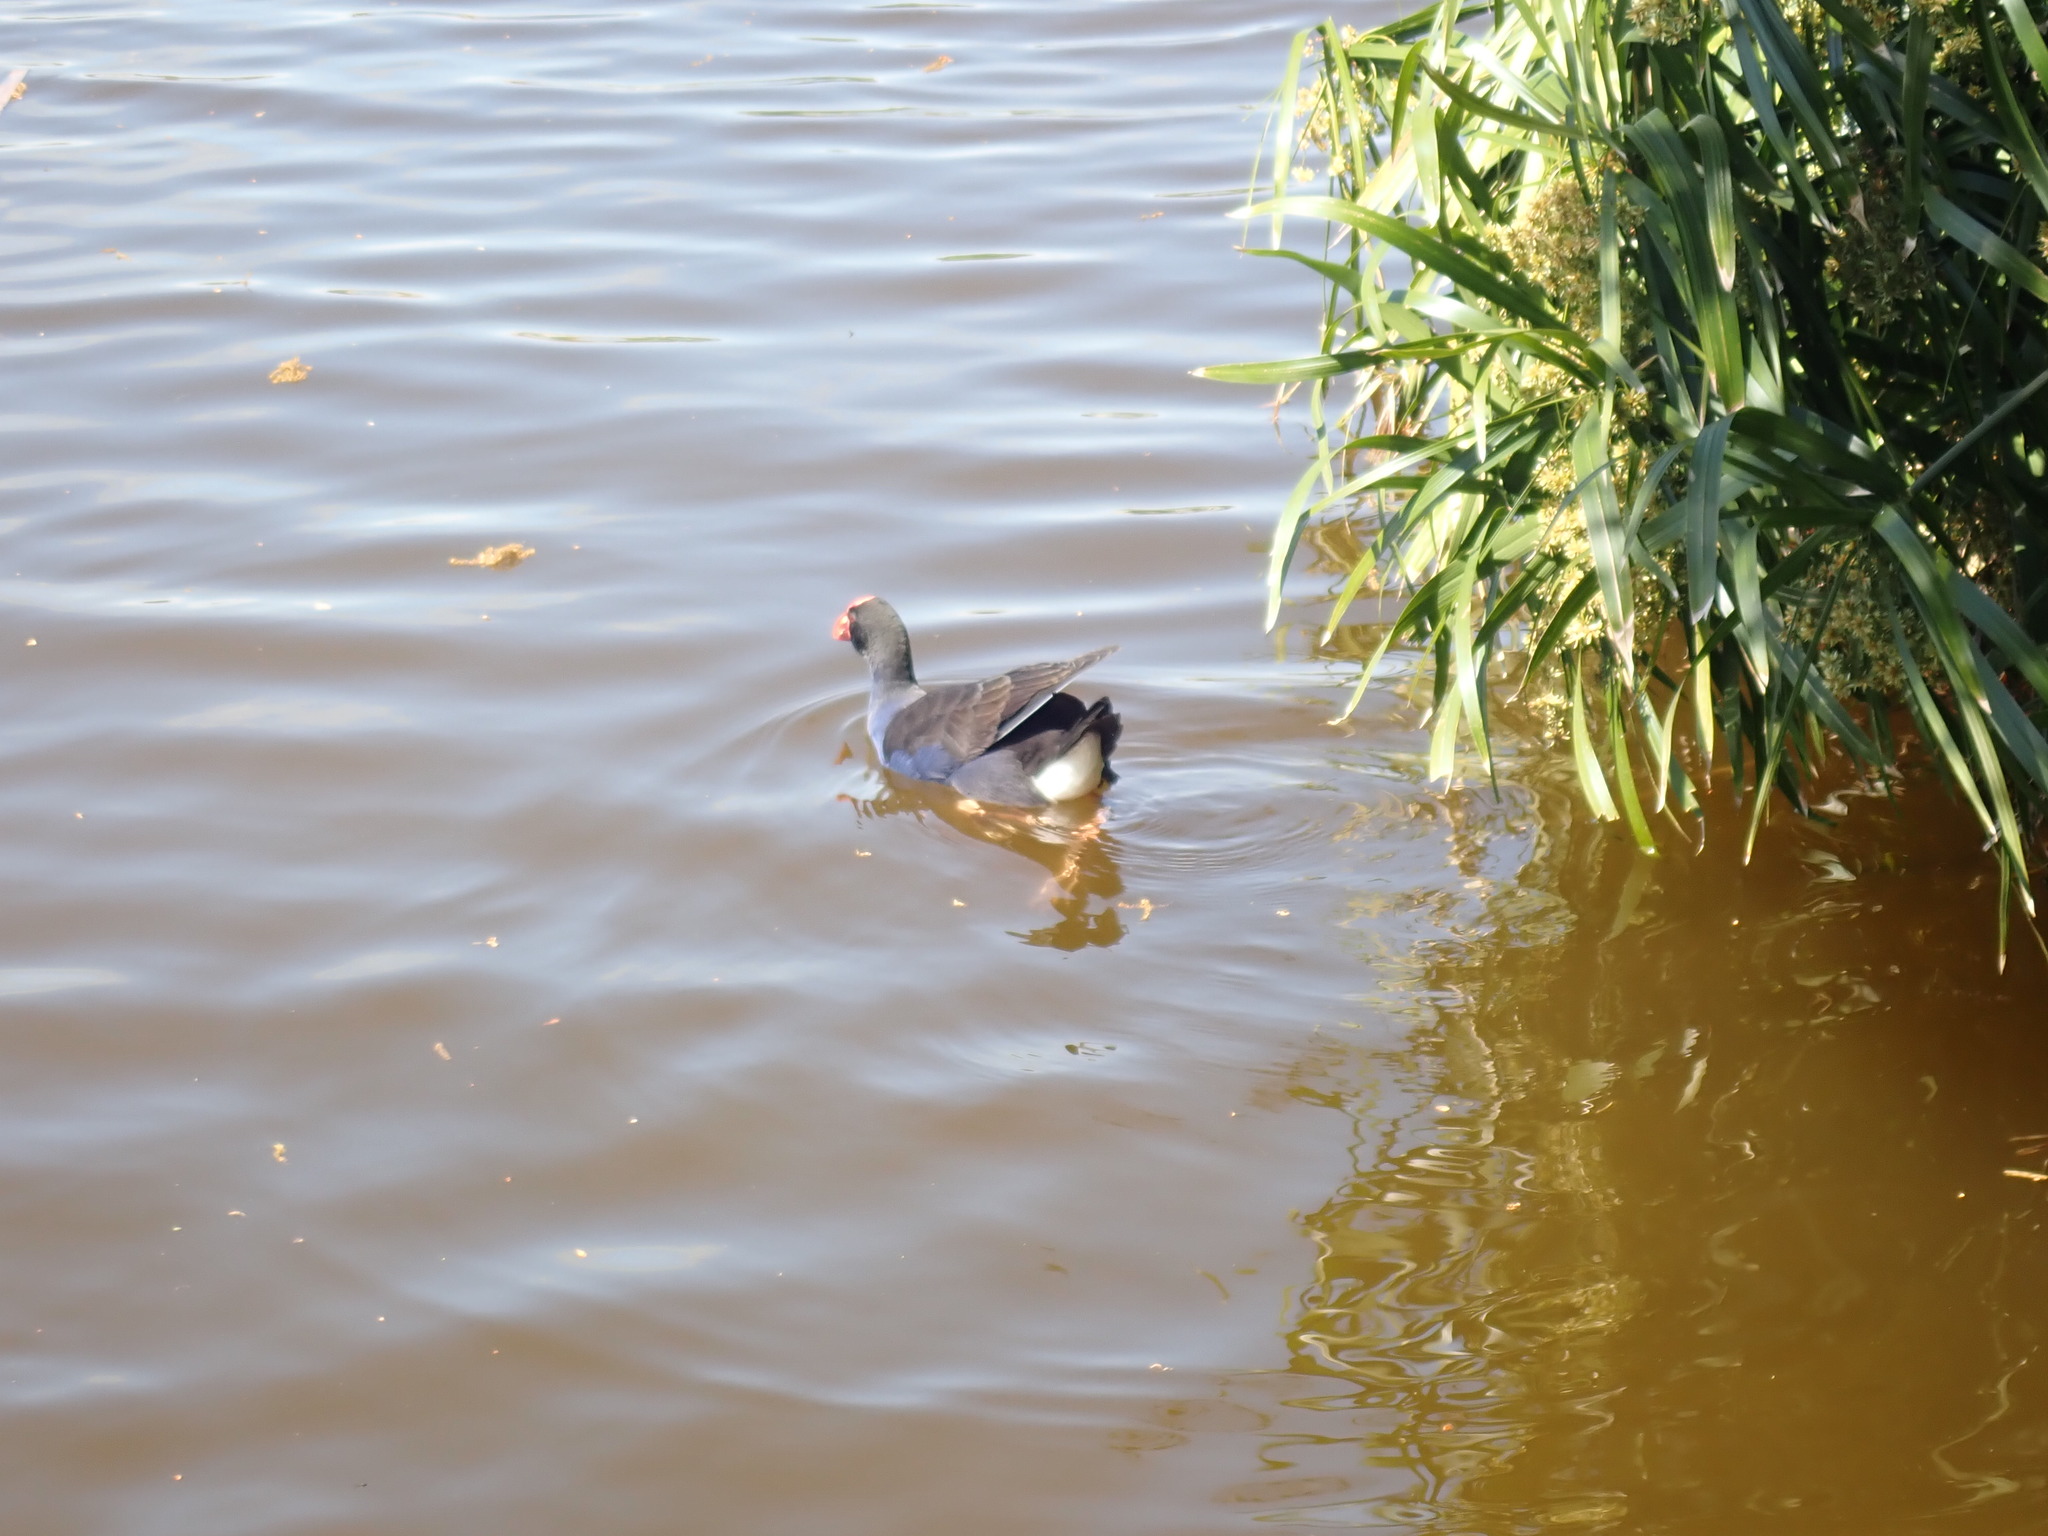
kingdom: Animalia
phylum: Chordata
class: Aves
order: Gruiformes
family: Rallidae
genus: Porphyrio
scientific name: Porphyrio melanotus
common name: Australasian swamphen
